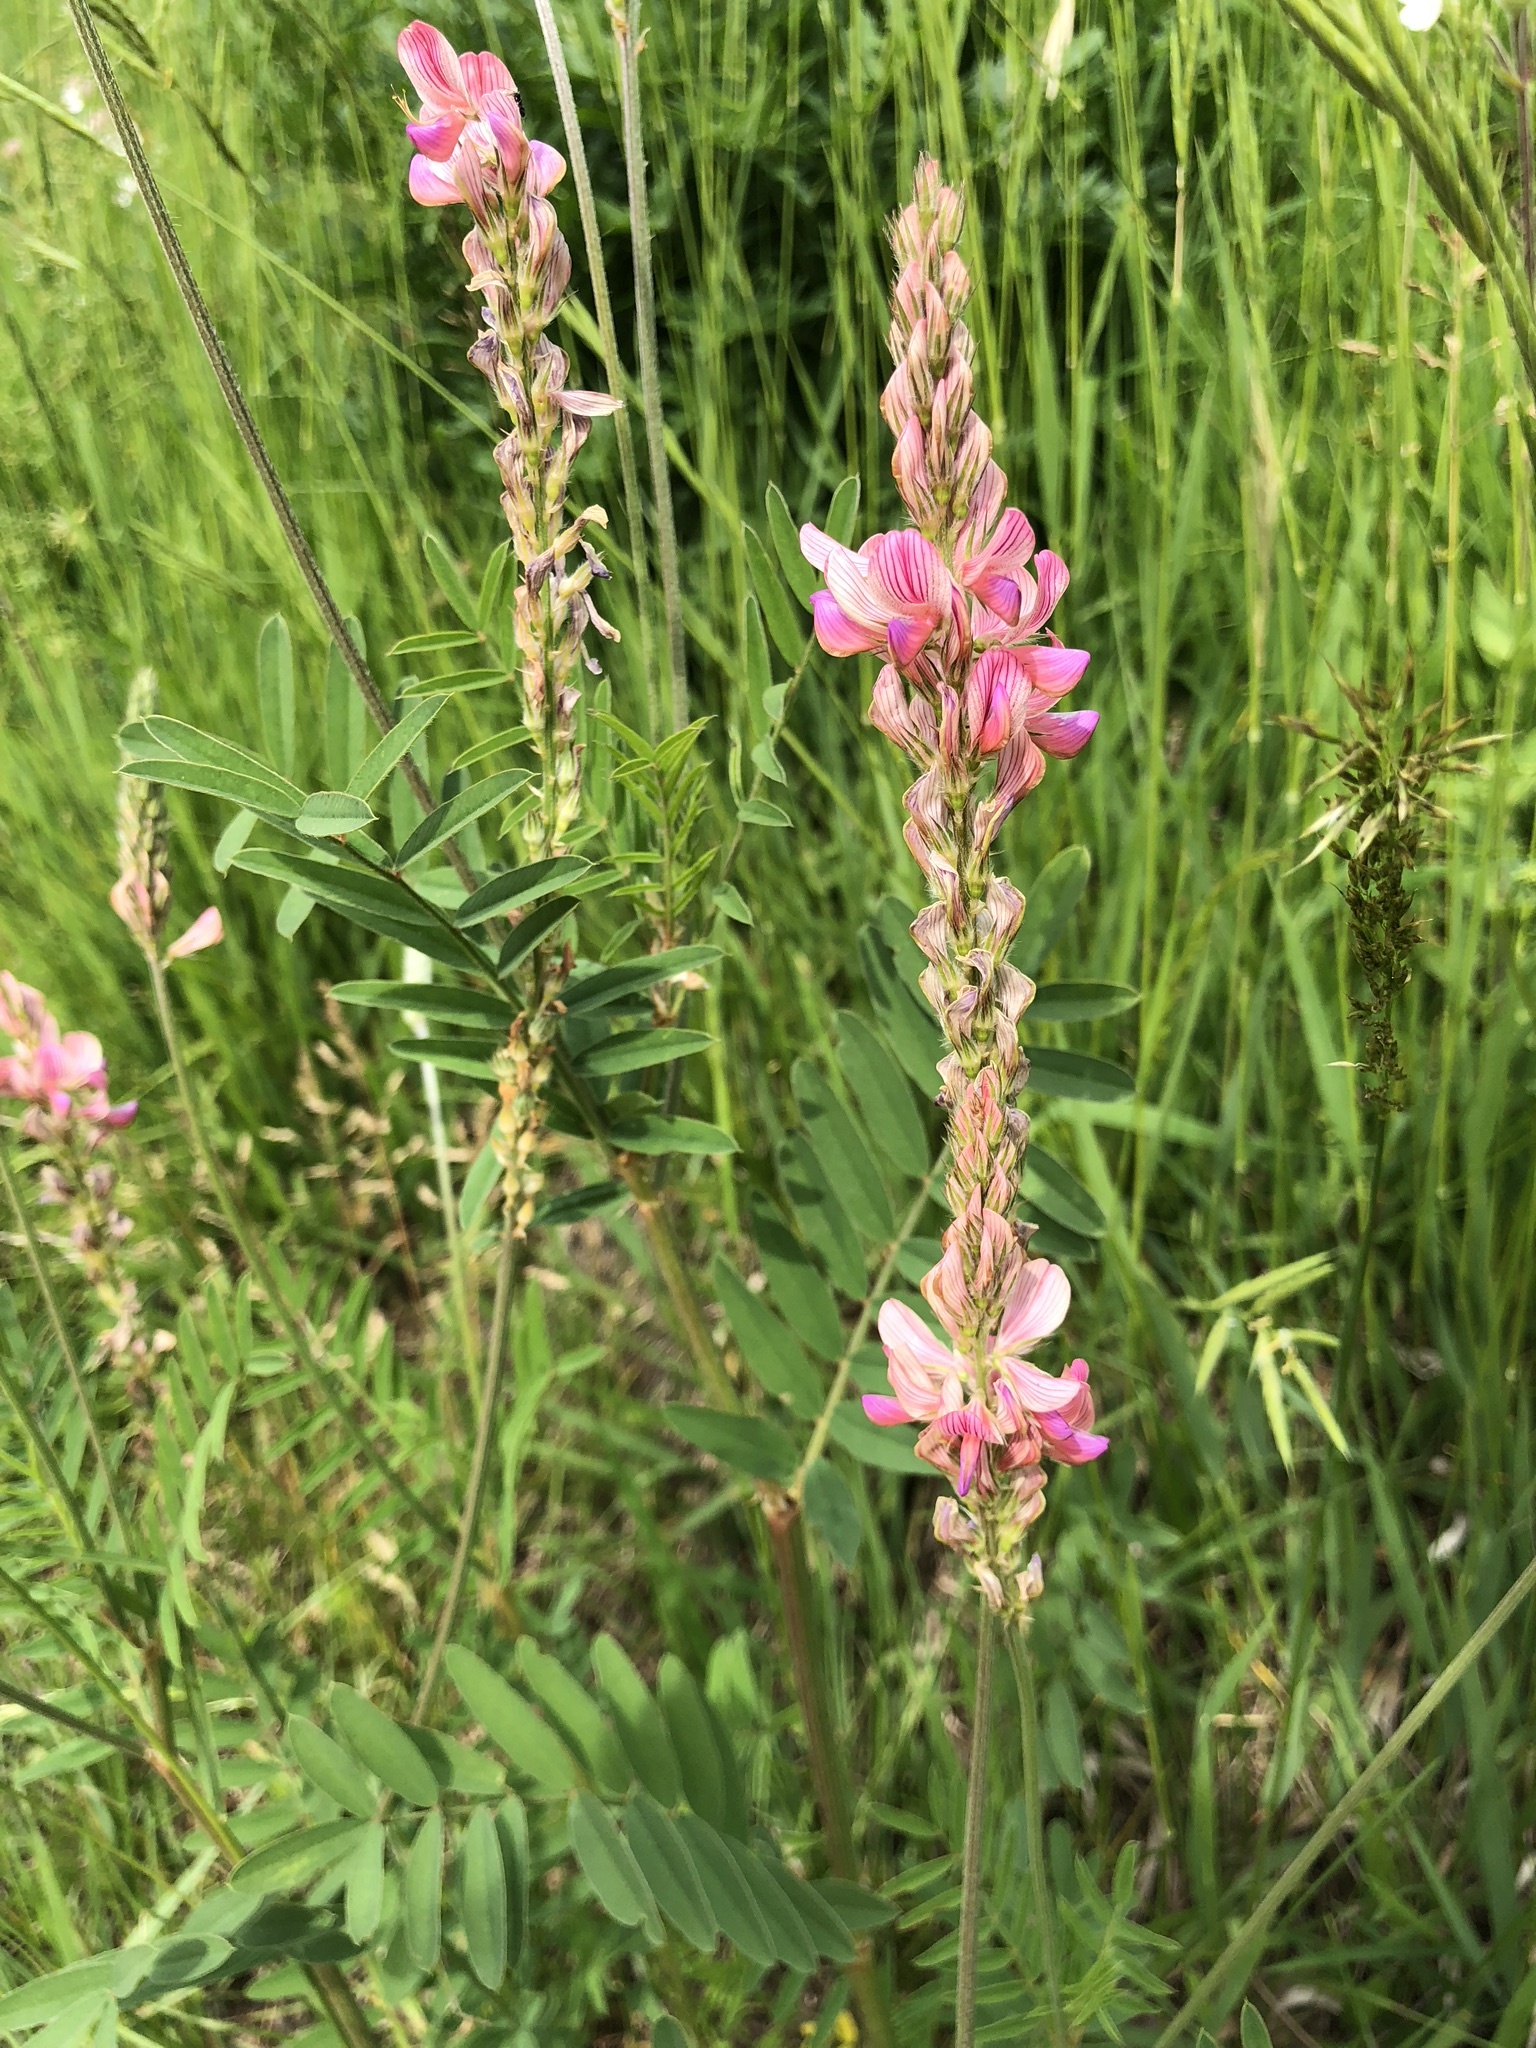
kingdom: Plantae
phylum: Tracheophyta
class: Magnoliopsida
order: Fabales
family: Fabaceae
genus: Onobrychis
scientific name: Onobrychis viciifolia
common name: Sainfoin
